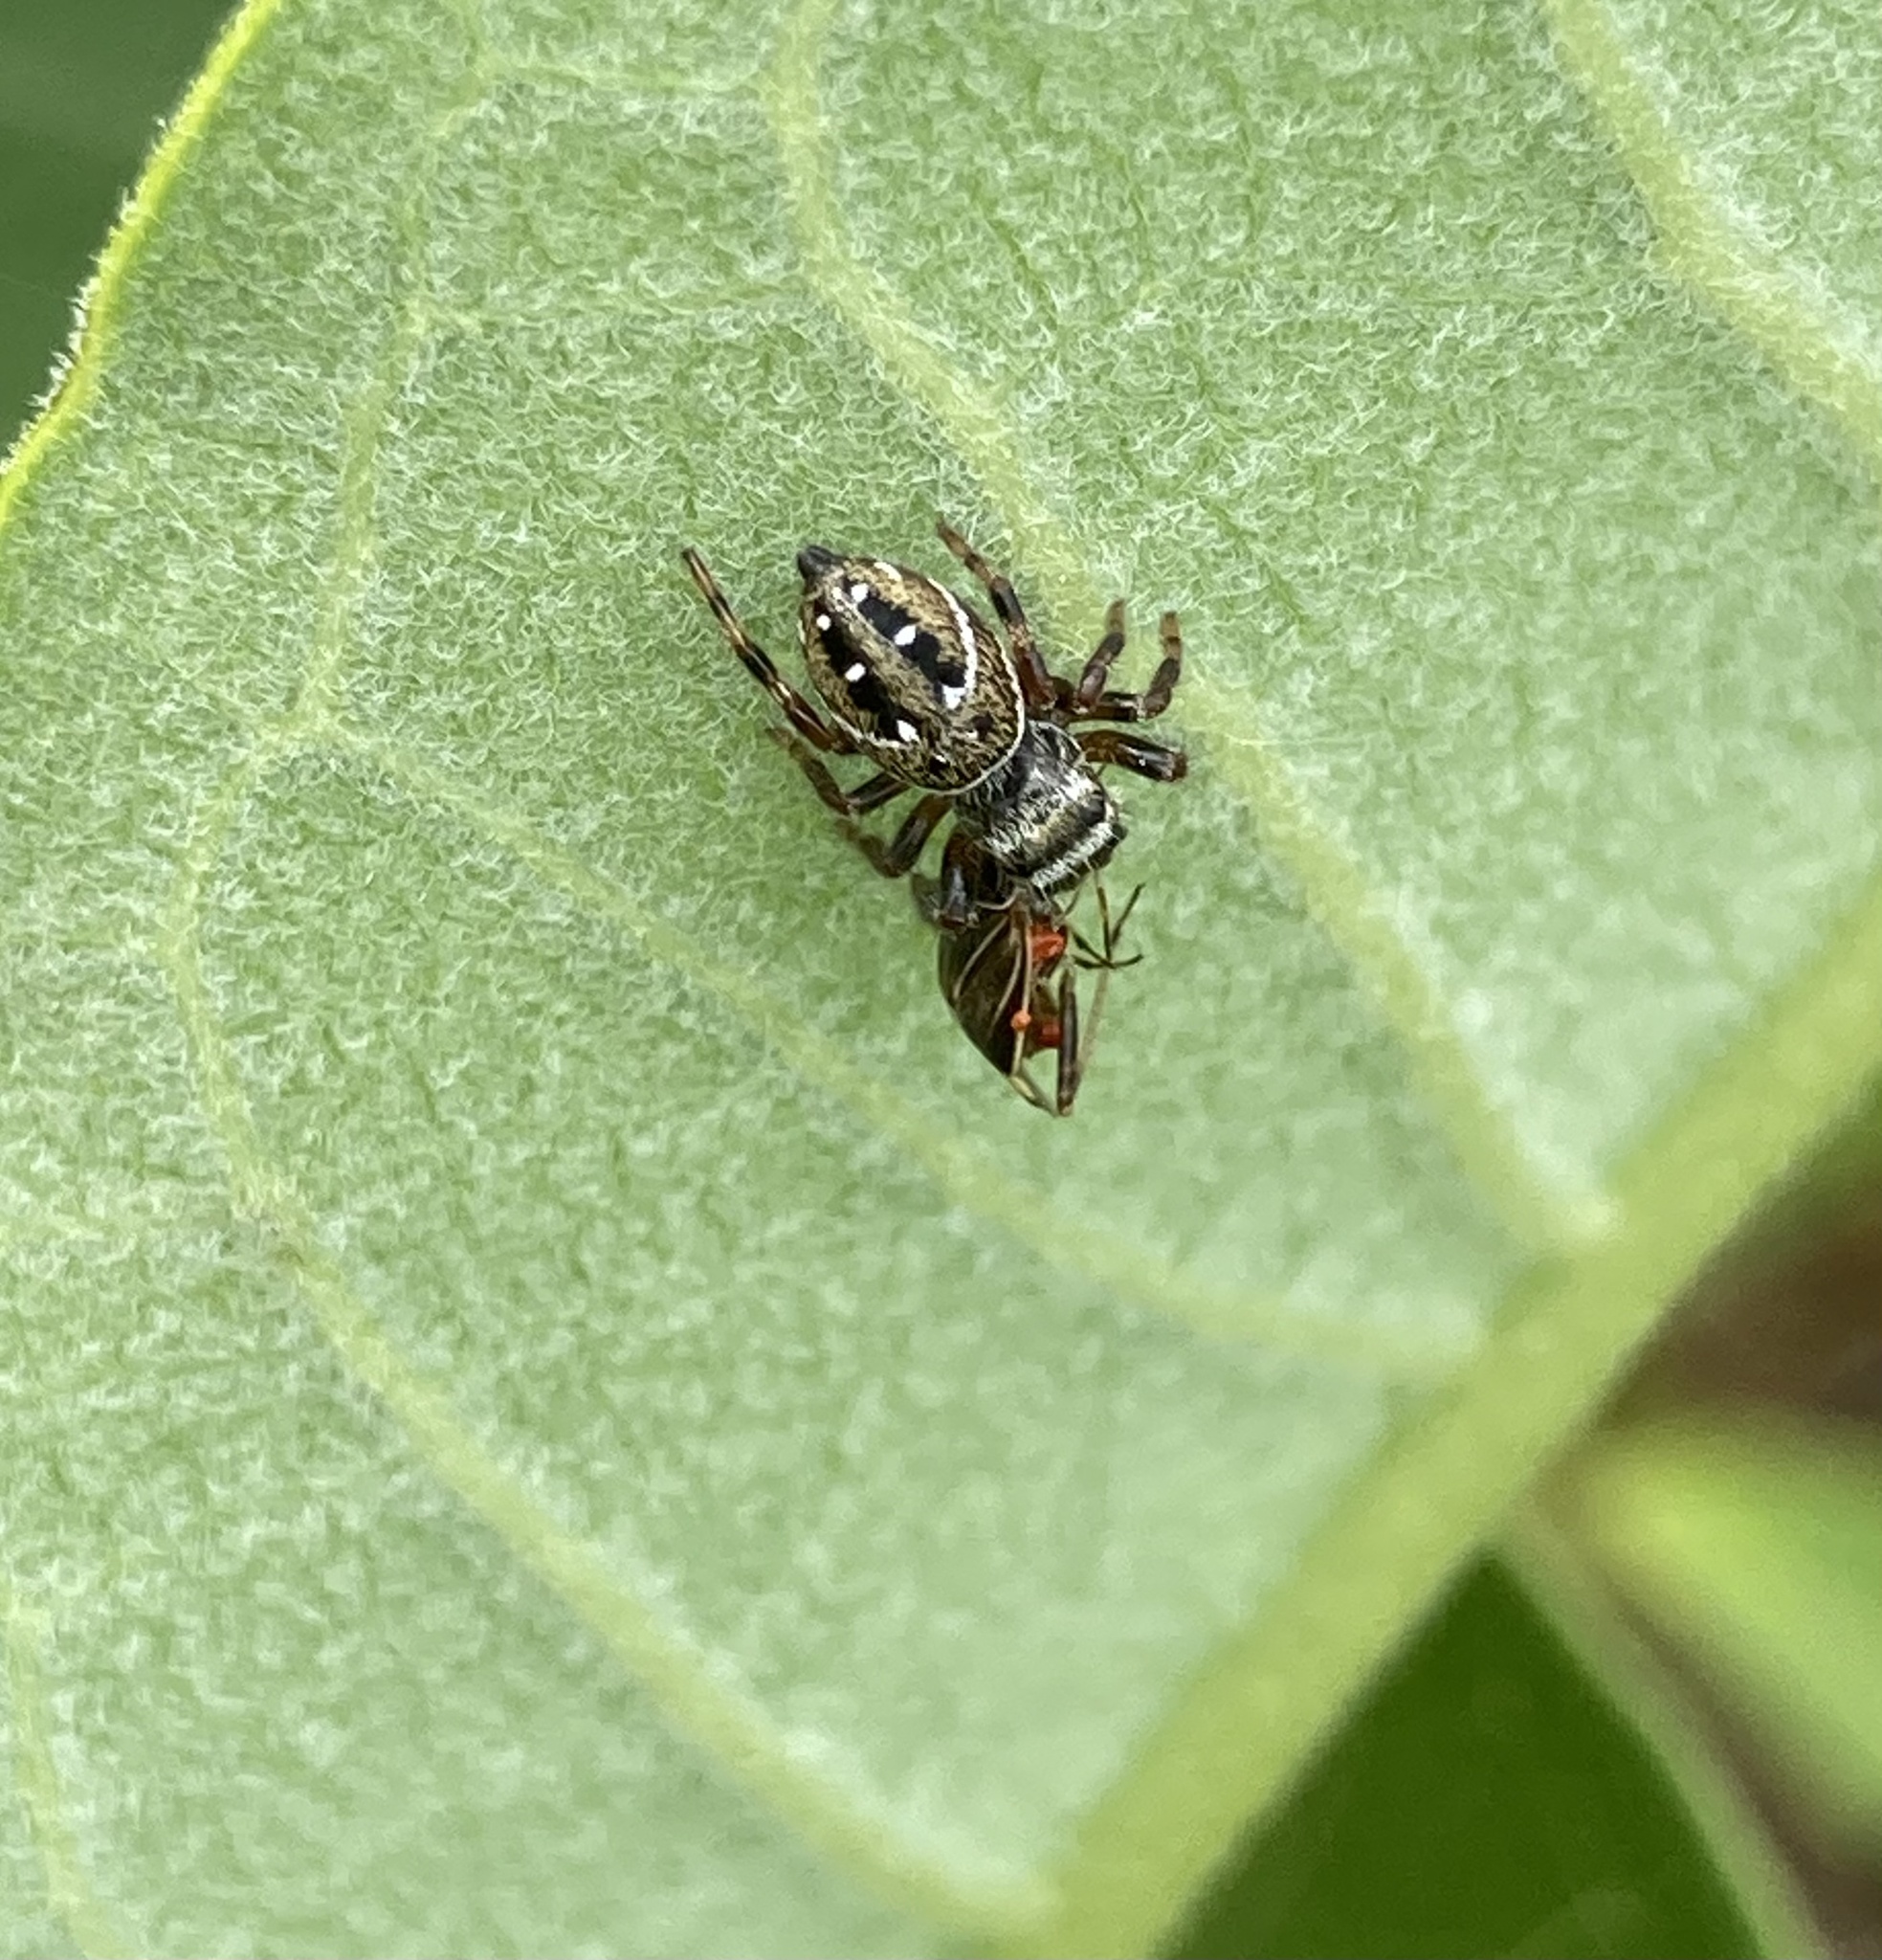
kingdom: Animalia
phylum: Arthropoda
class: Arachnida
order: Araneae
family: Salticidae
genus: Phidippus
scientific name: Phidippus clarus
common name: Brilliant jumping spider
